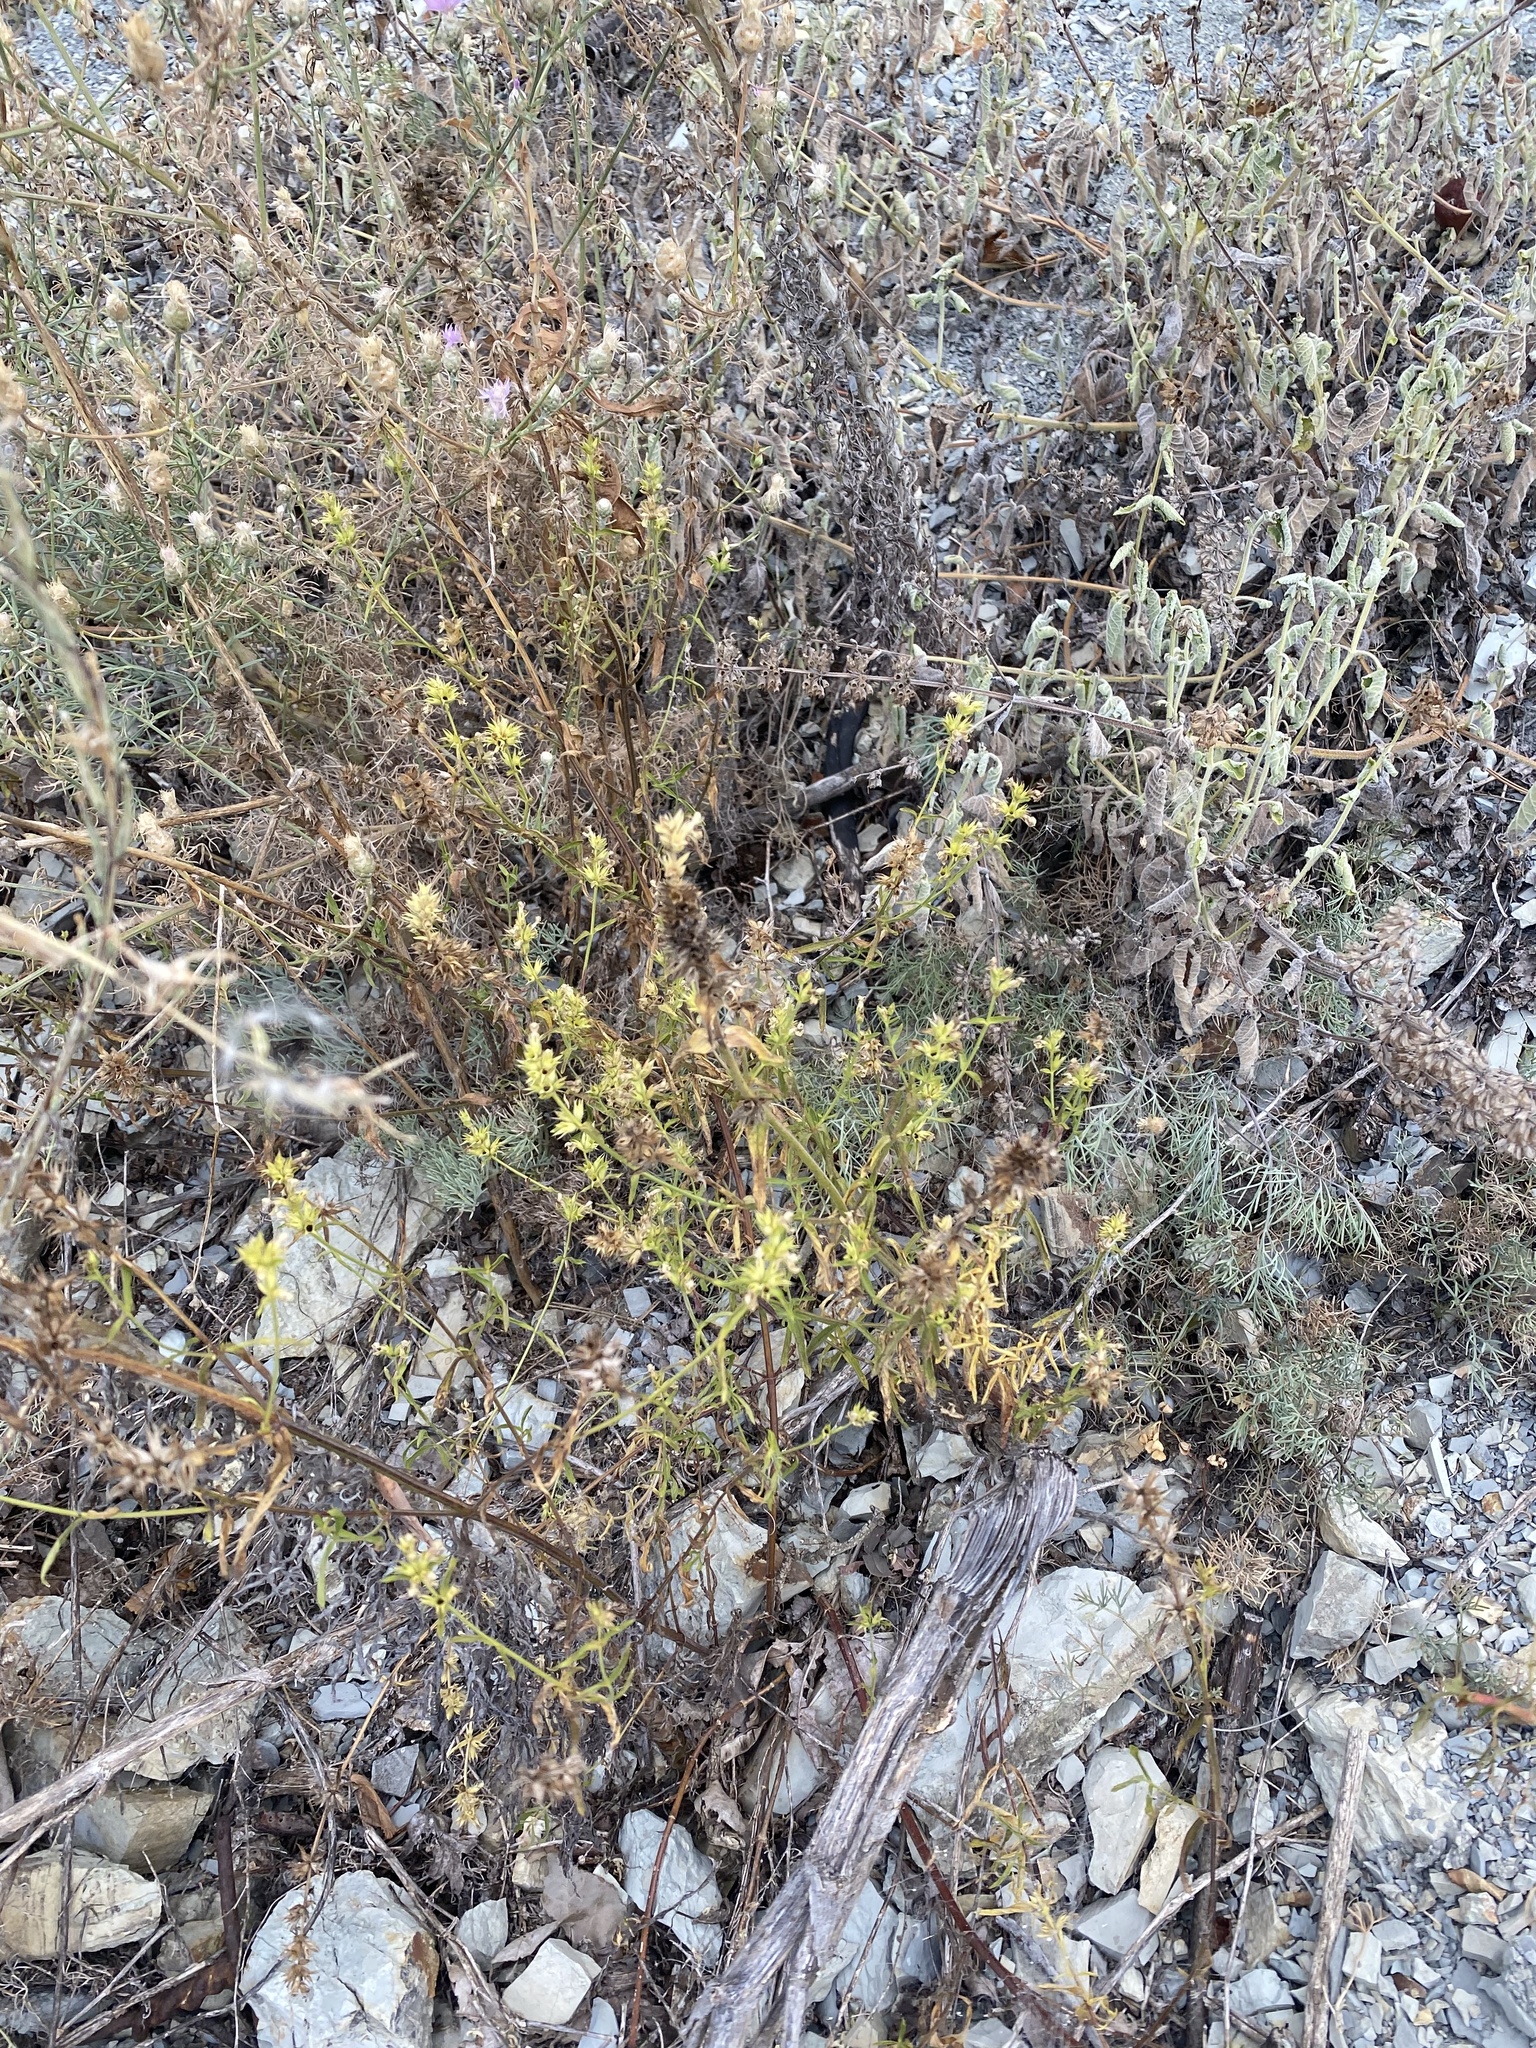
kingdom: Plantae
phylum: Tracheophyta
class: Magnoliopsida
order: Lamiales
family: Lamiaceae
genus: Stachys
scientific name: Stachys atherocalyx
